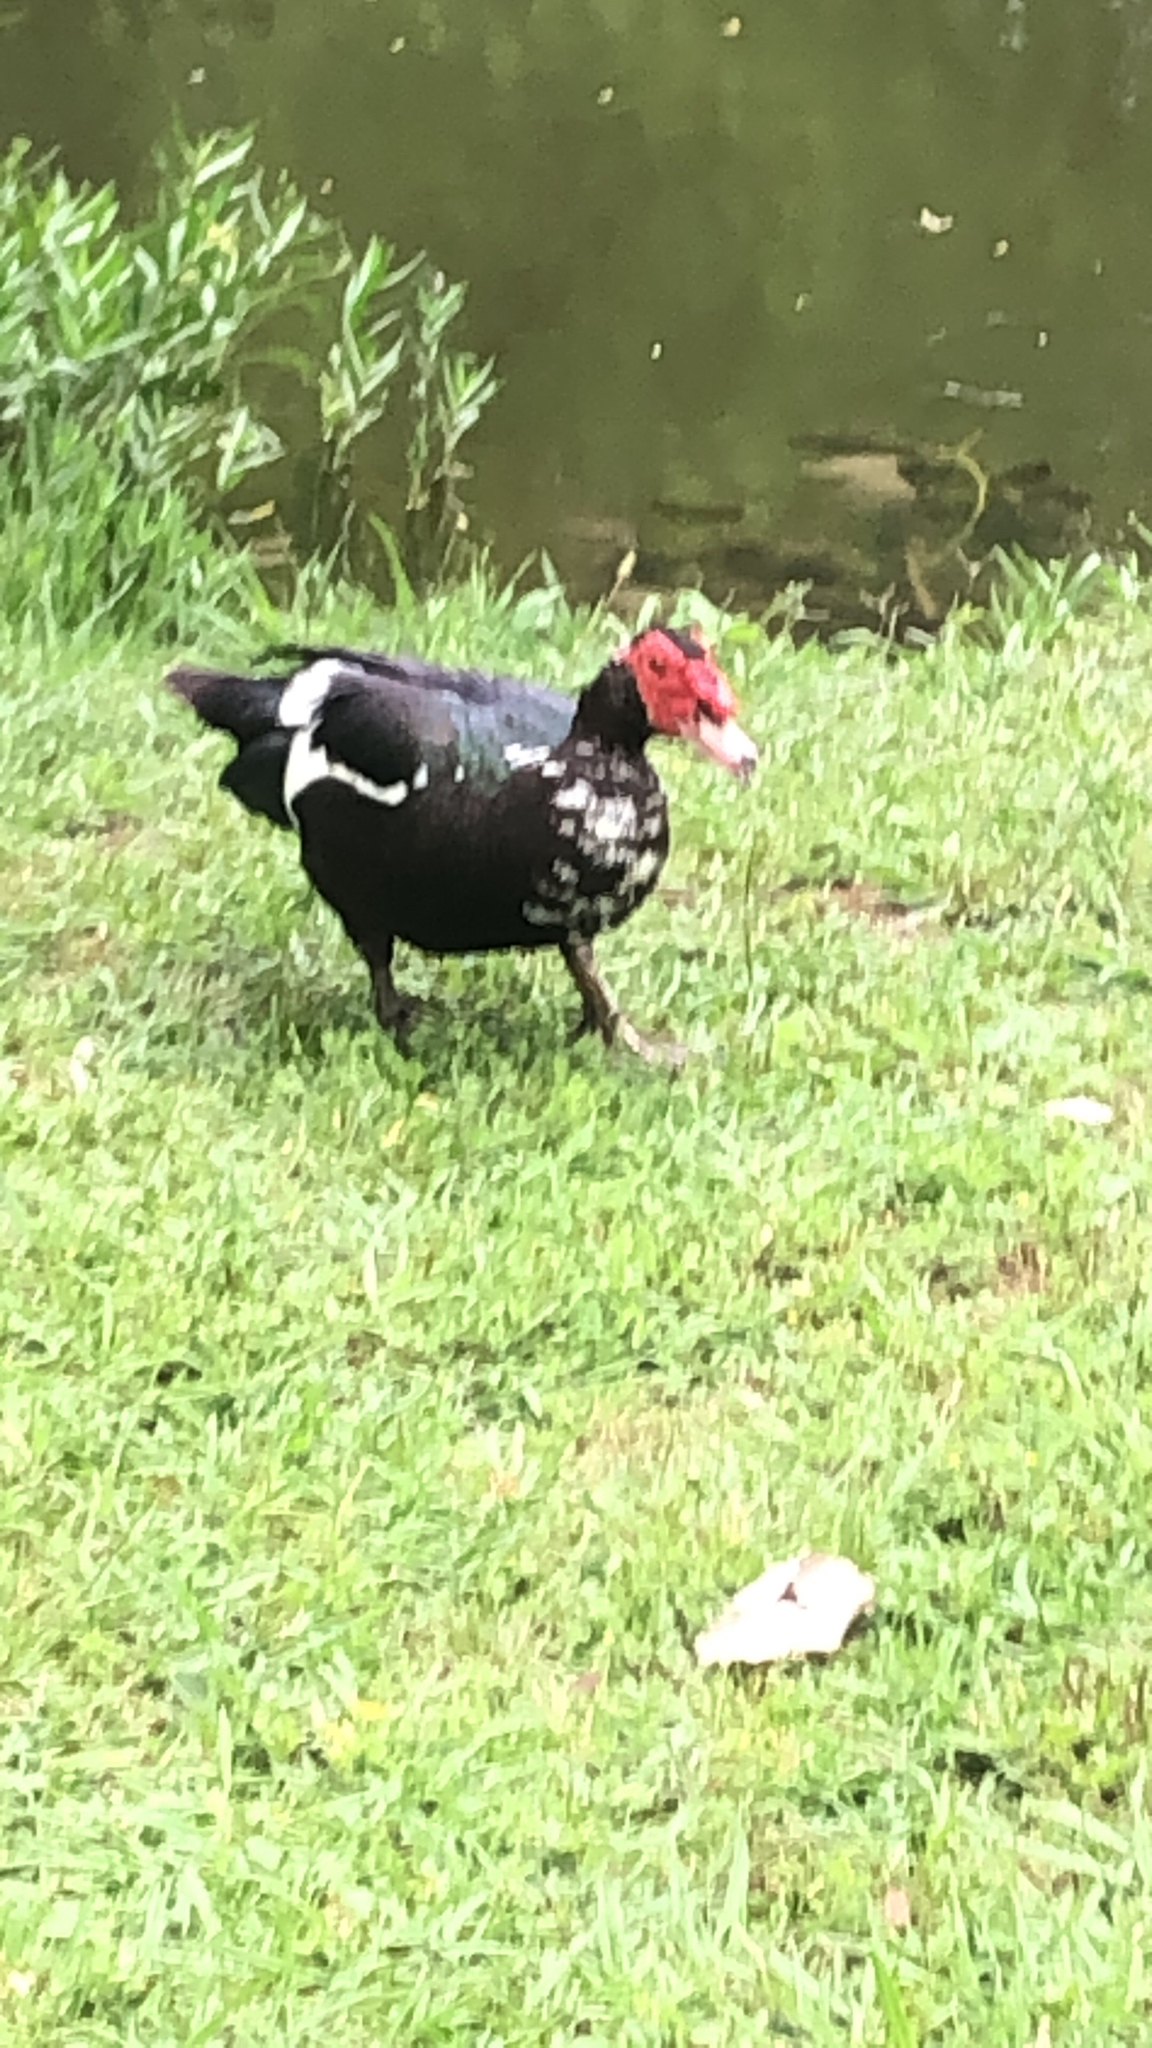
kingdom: Animalia
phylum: Chordata
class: Aves
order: Anseriformes
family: Anatidae
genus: Cairina
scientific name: Cairina moschata
